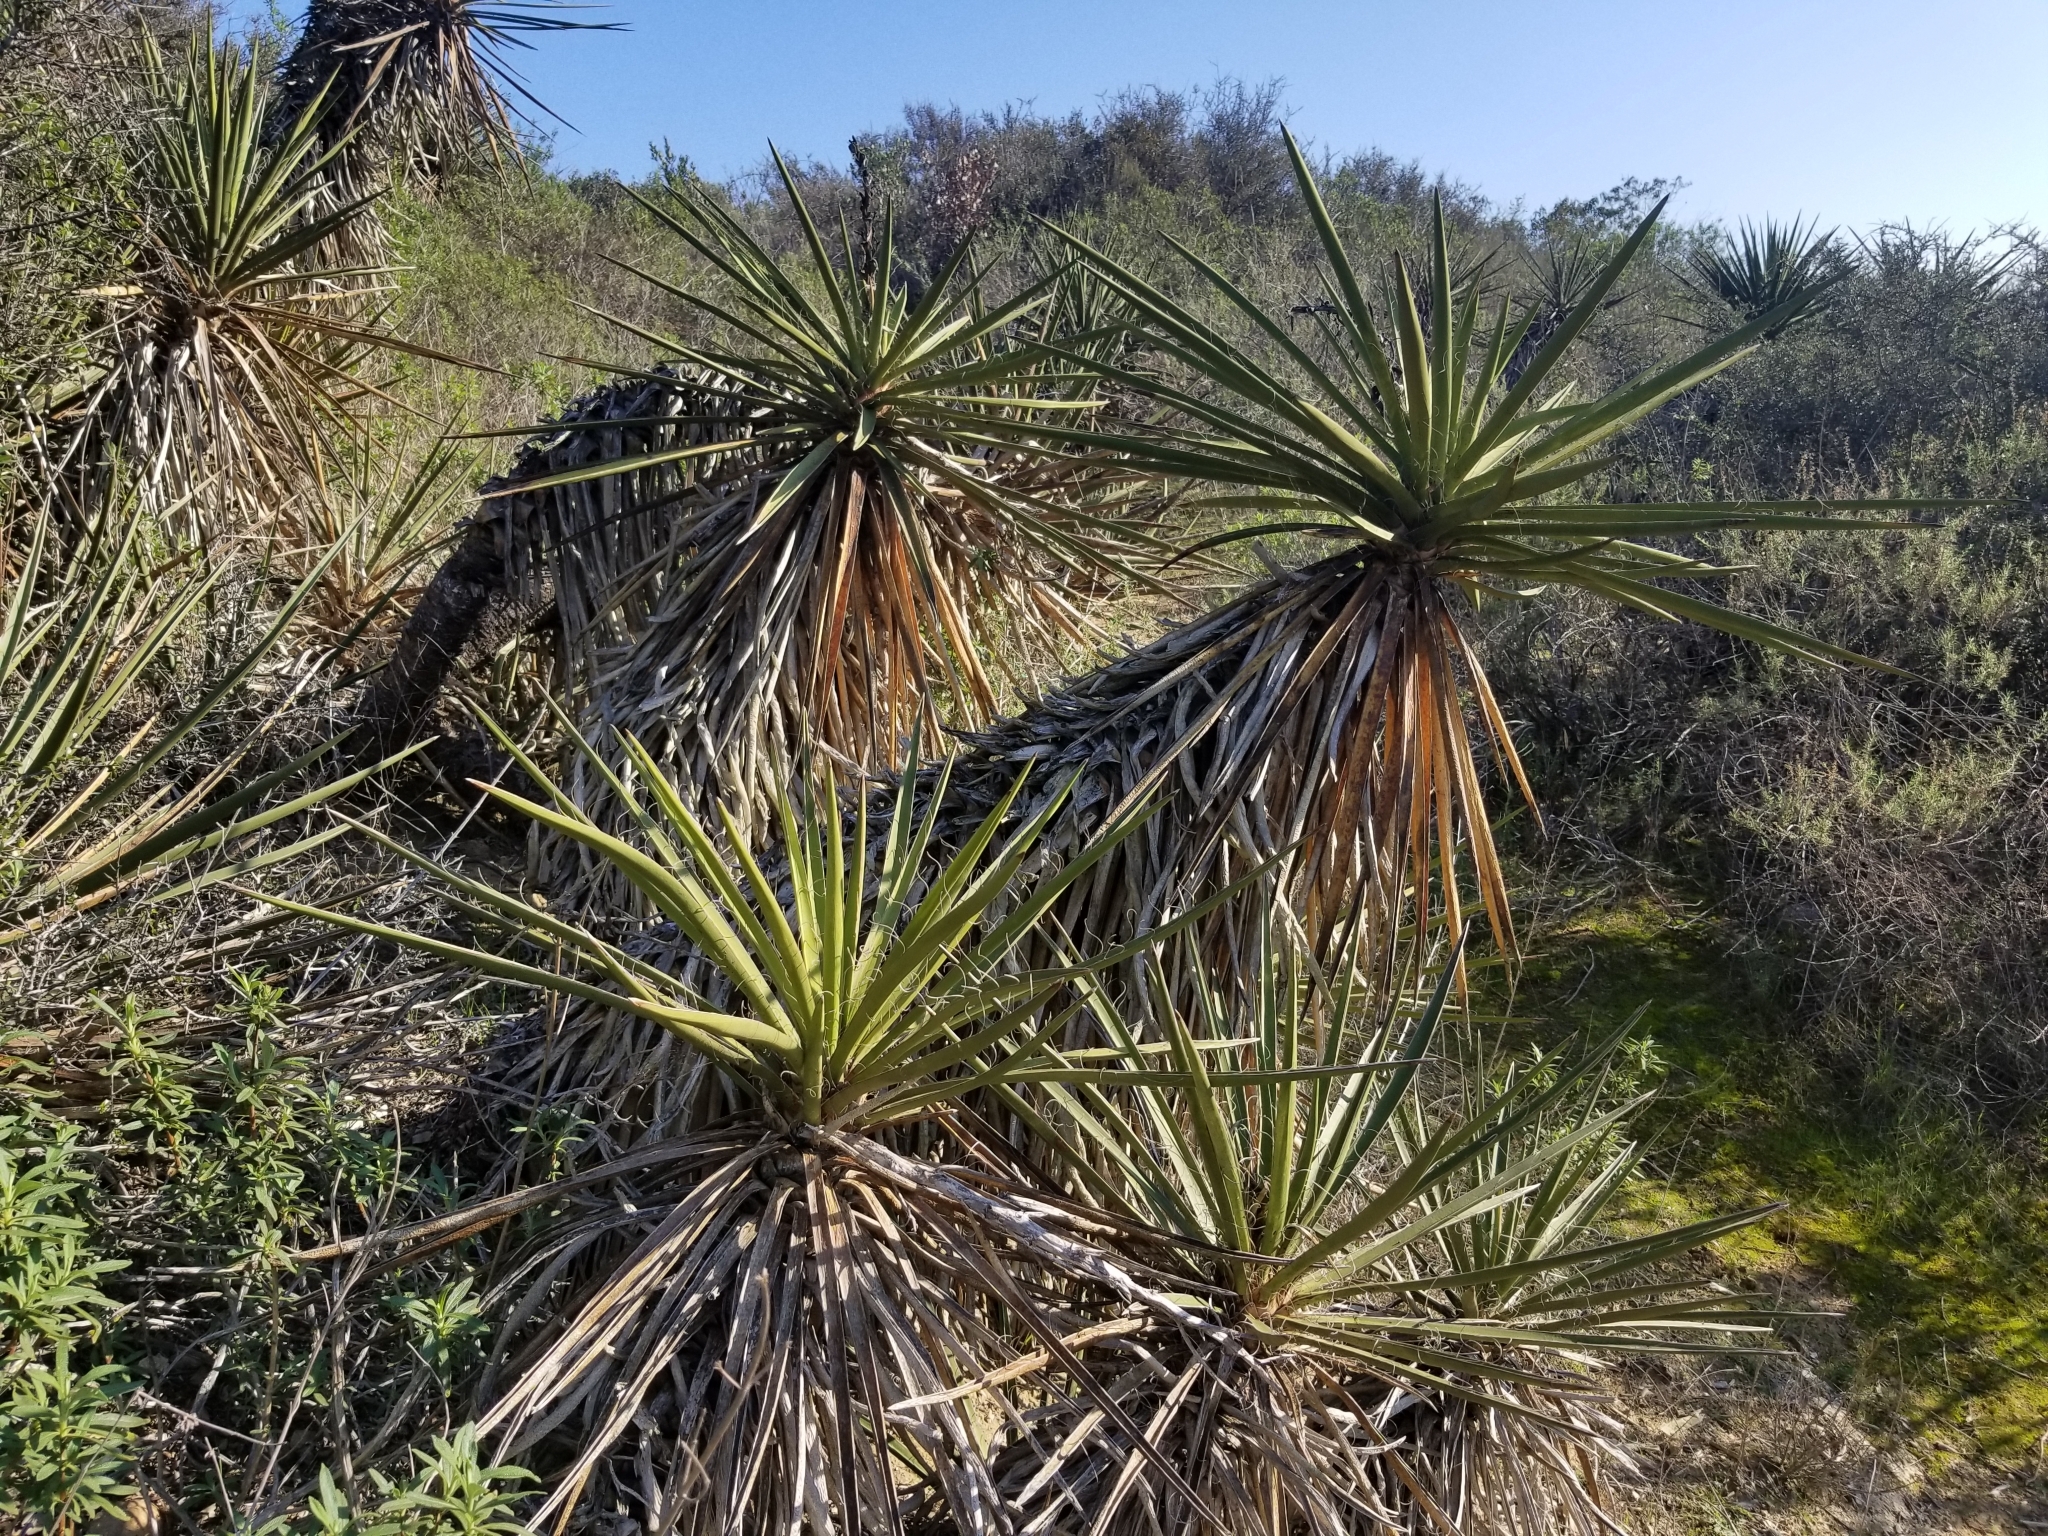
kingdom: Plantae
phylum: Tracheophyta
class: Liliopsida
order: Asparagales
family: Asparagaceae
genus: Yucca
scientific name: Yucca schidigera
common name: Mojave yucca
